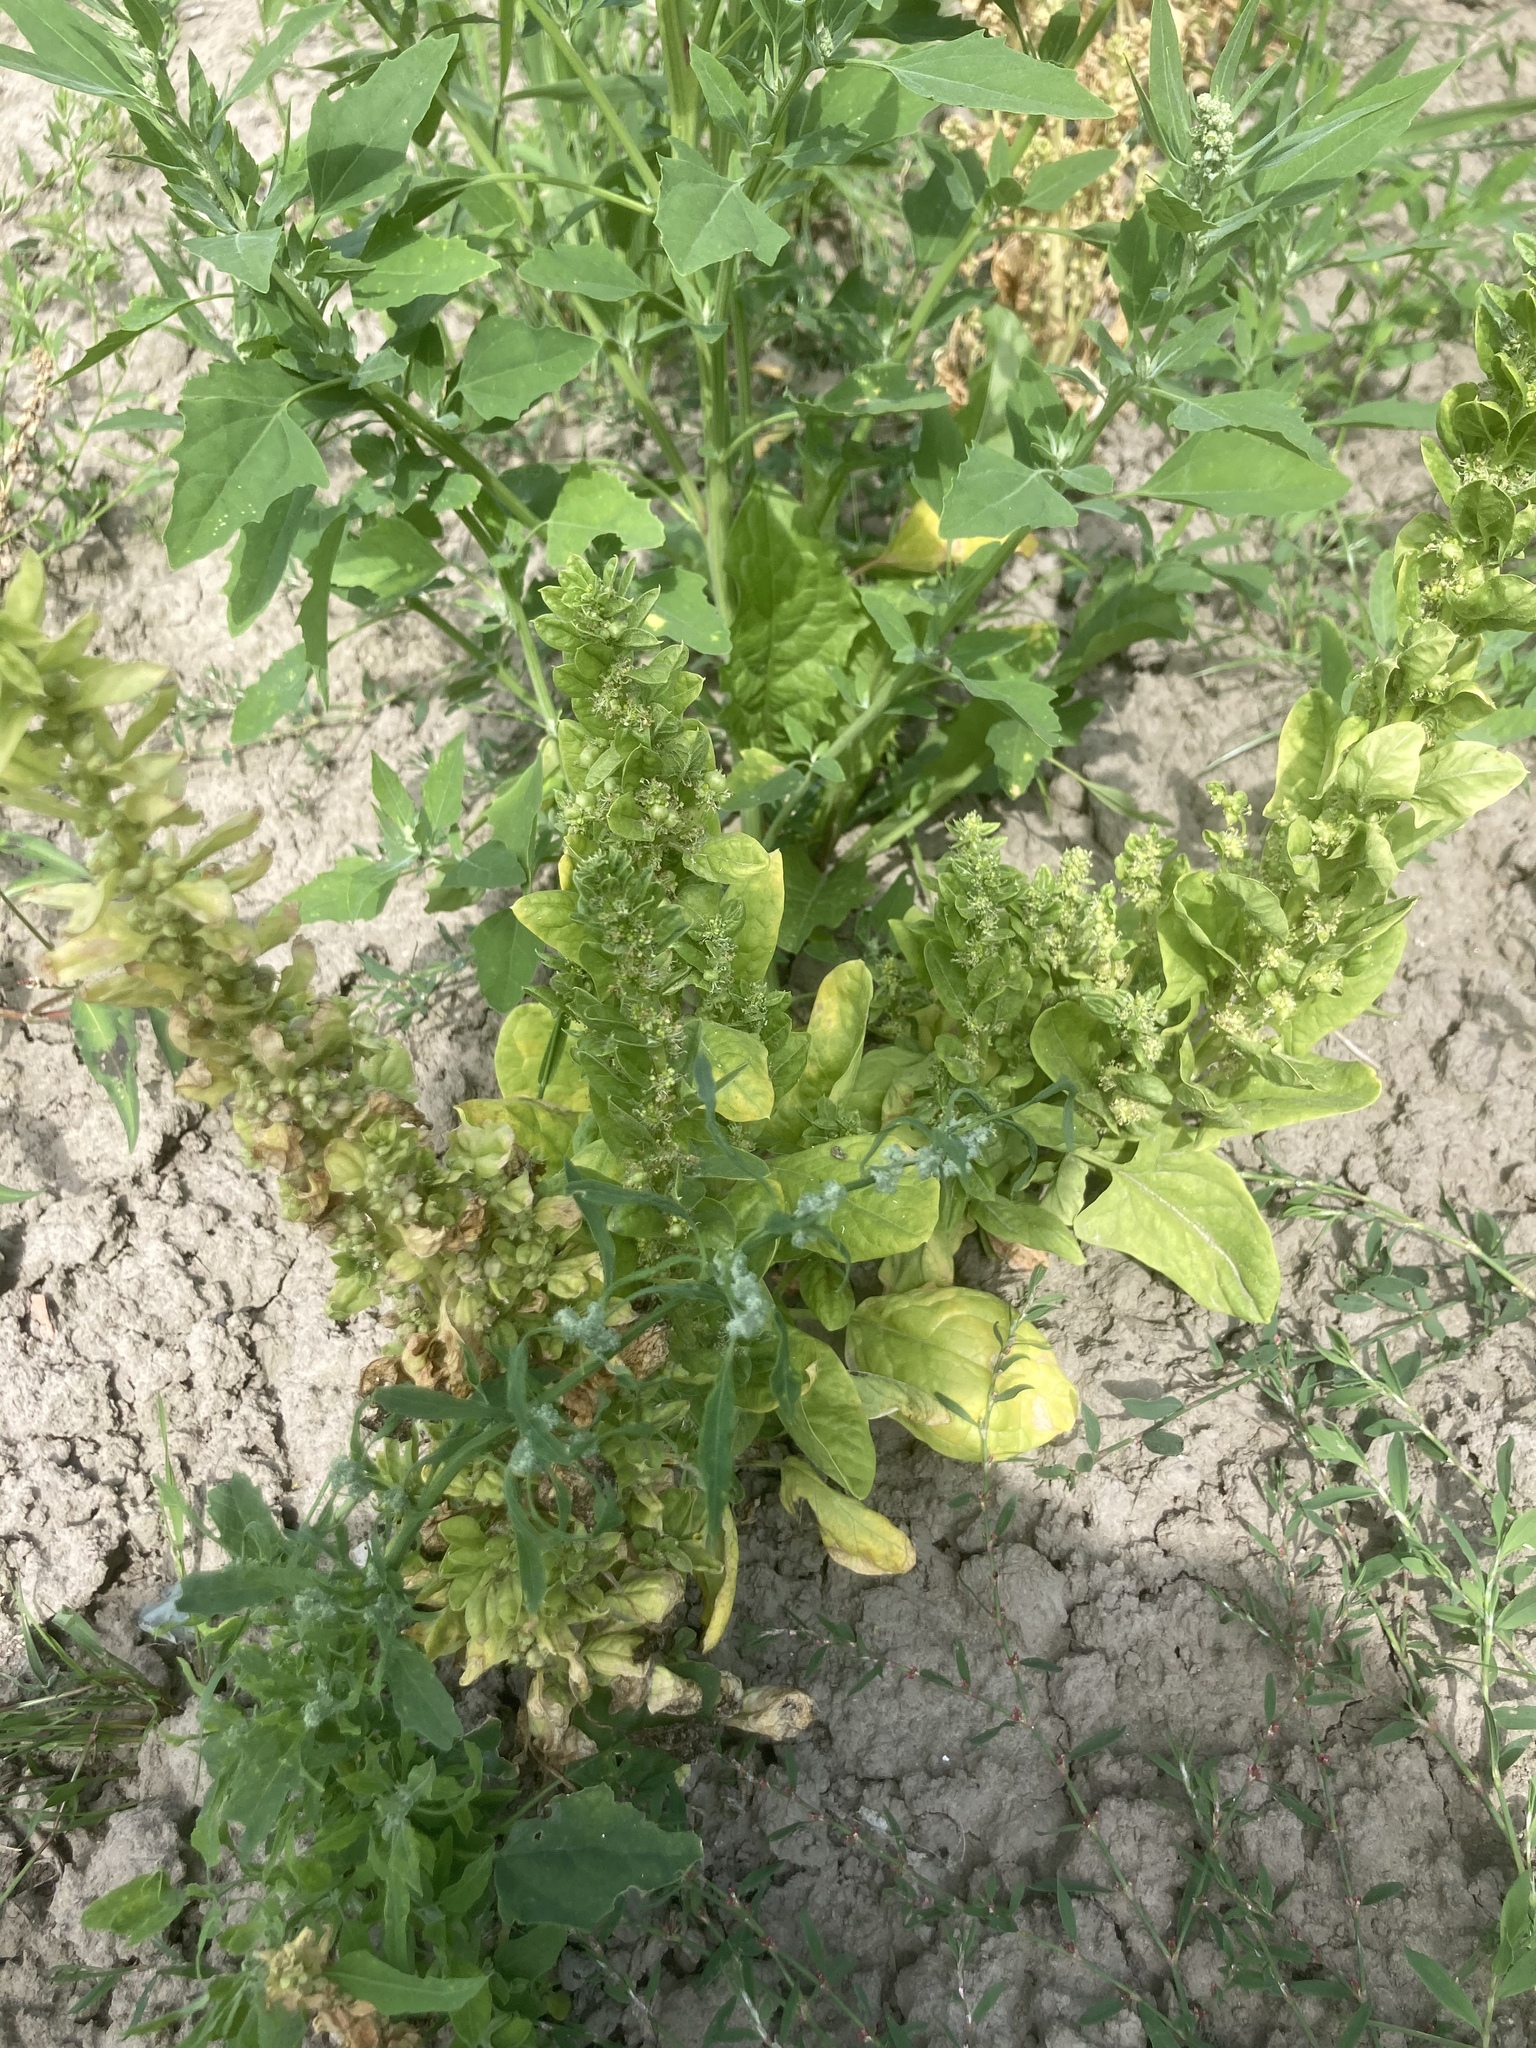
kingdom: Plantae
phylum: Tracheophyta
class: Magnoliopsida
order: Caryophyllales
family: Amaranthaceae
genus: Spinacia
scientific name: Spinacia oleracea
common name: Spinach
